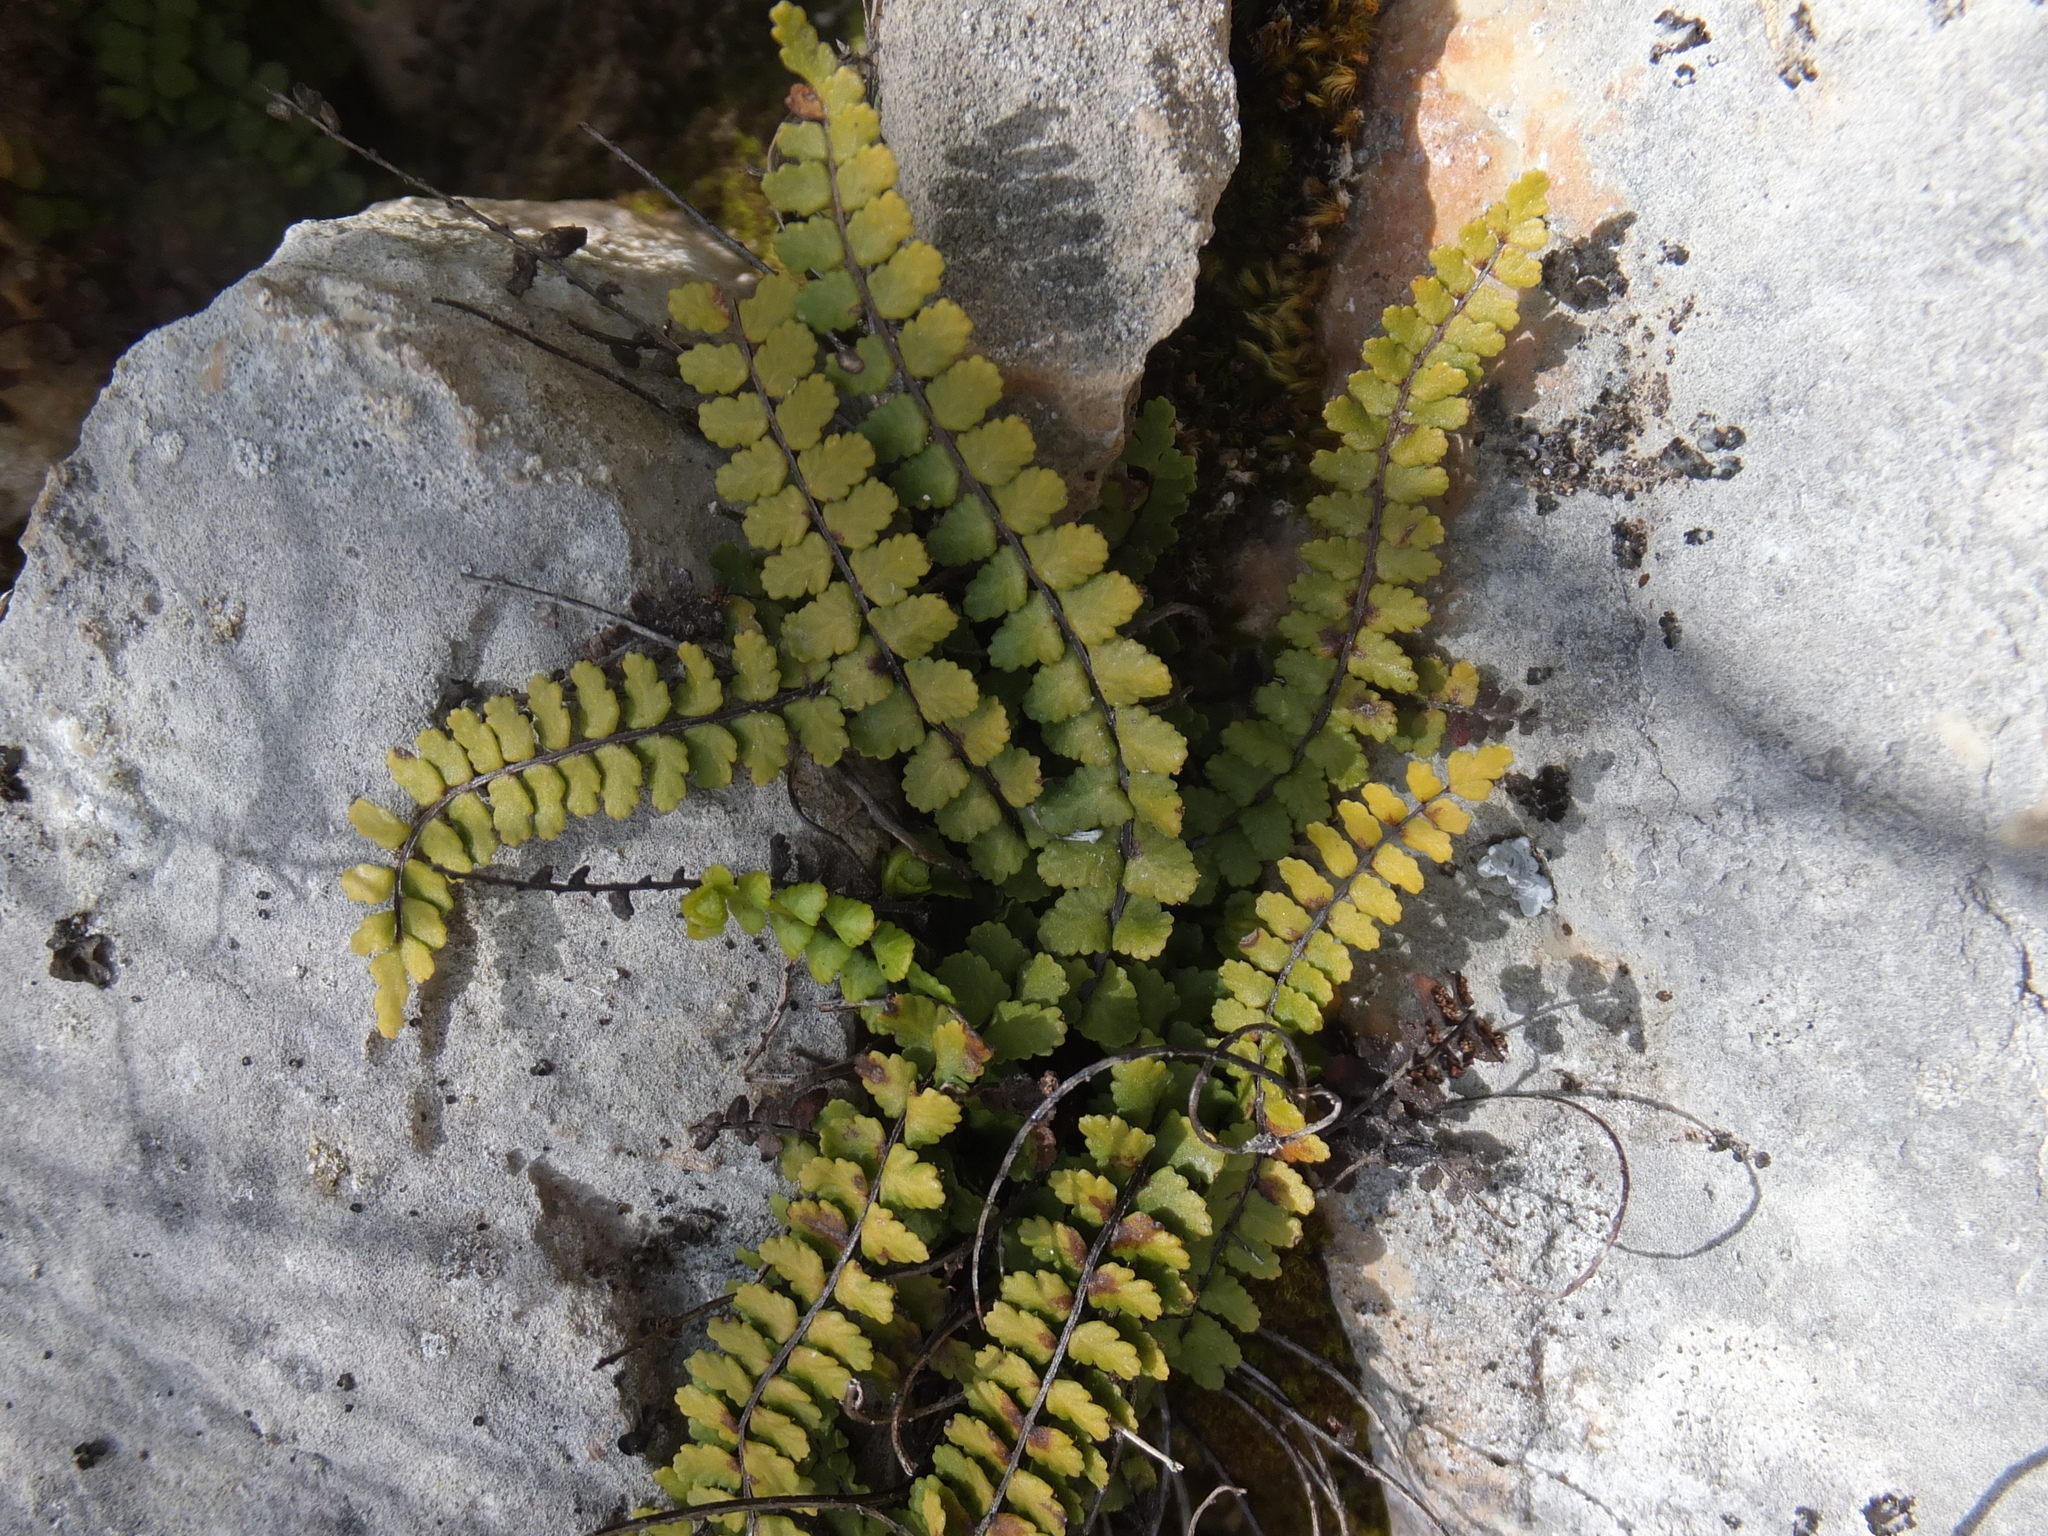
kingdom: Plantae
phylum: Tracheophyta
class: Polypodiopsida
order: Polypodiales
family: Aspleniaceae
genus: Asplenium
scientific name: Asplenium trichomanes
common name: Maidenhair spleenwort
